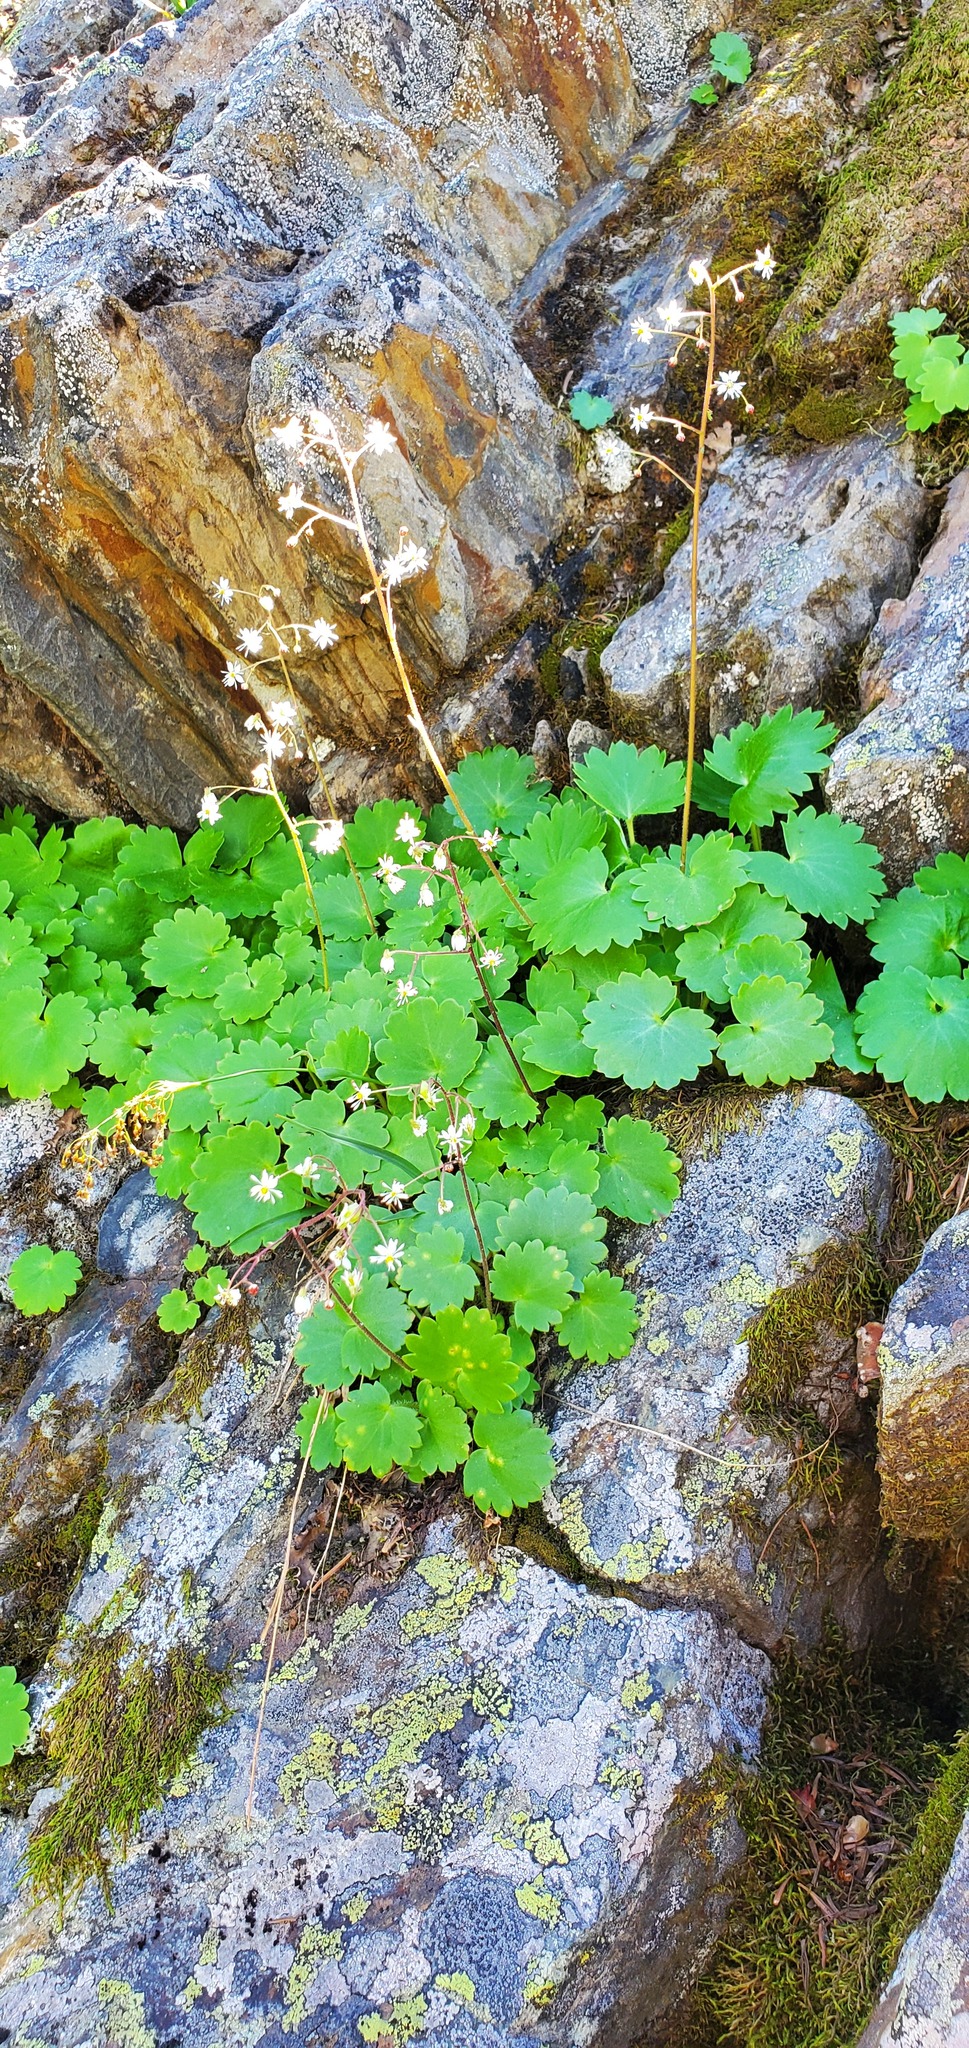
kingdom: Plantae
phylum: Tracheophyta
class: Magnoliopsida
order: Saxifragales
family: Saxifragaceae
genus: Micranthes
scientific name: Micranthes mertensiana
